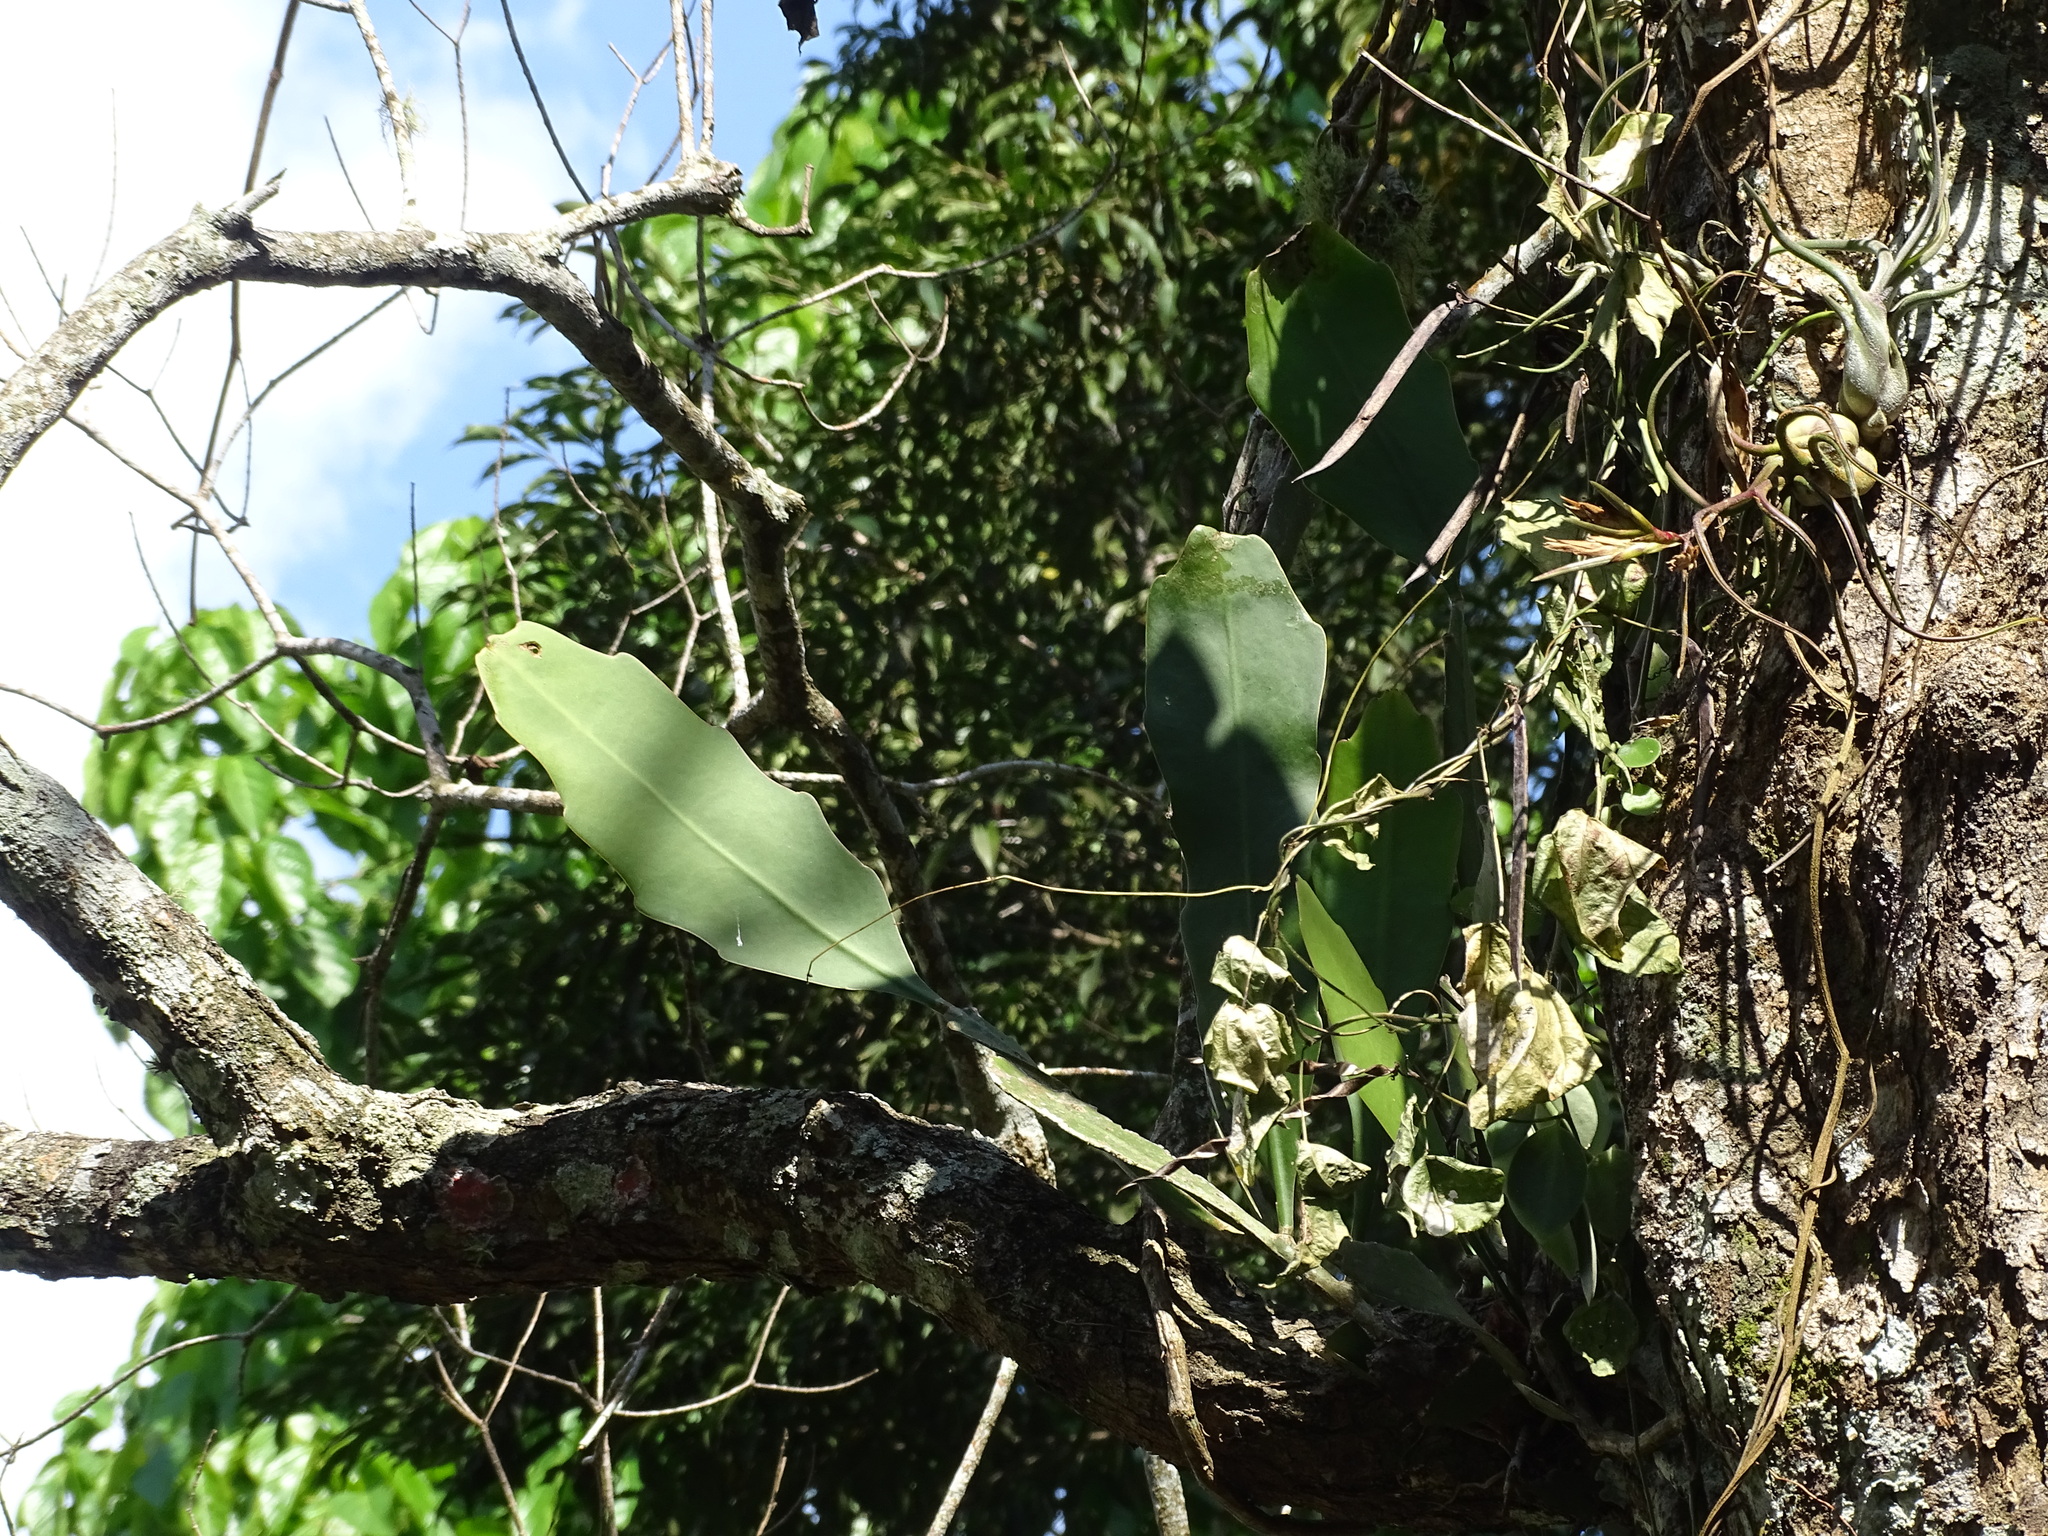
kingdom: Plantae
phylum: Tracheophyta
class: Magnoliopsida
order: Caryophyllales
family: Cactaceae
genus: Epiphyllum
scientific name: Epiphyllum oxypetalum
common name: Dutchman's pipe cactus
